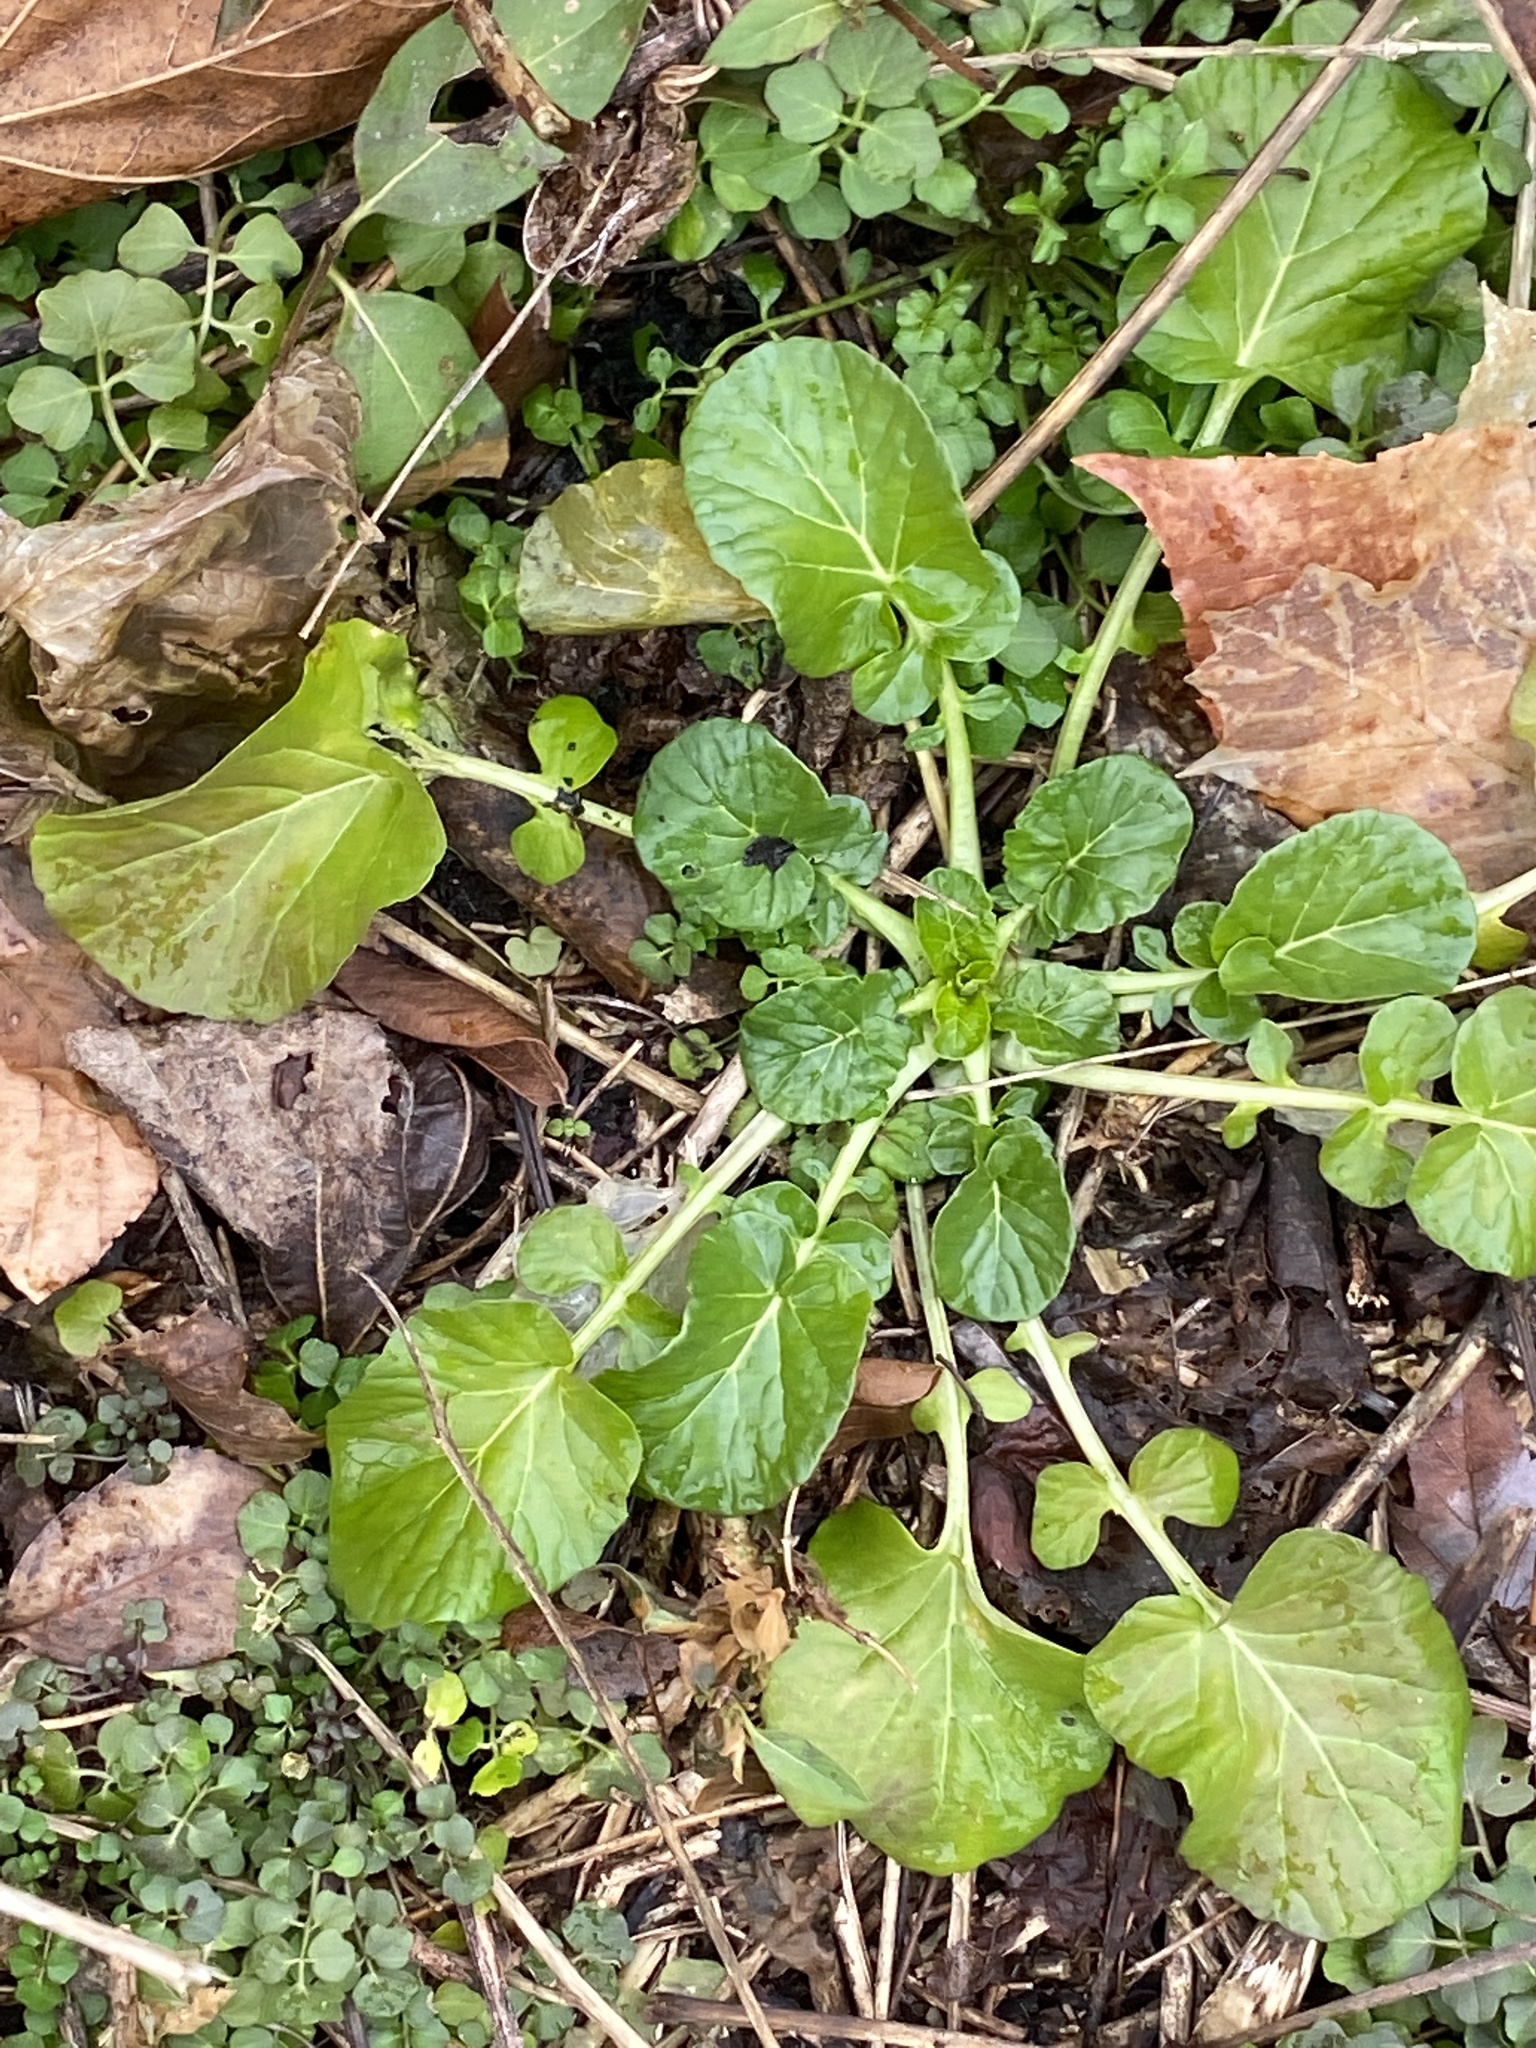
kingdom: Plantae
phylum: Tracheophyta
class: Magnoliopsida
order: Brassicales
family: Brassicaceae
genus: Barbarea
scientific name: Barbarea vulgaris
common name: Cressy-greens
